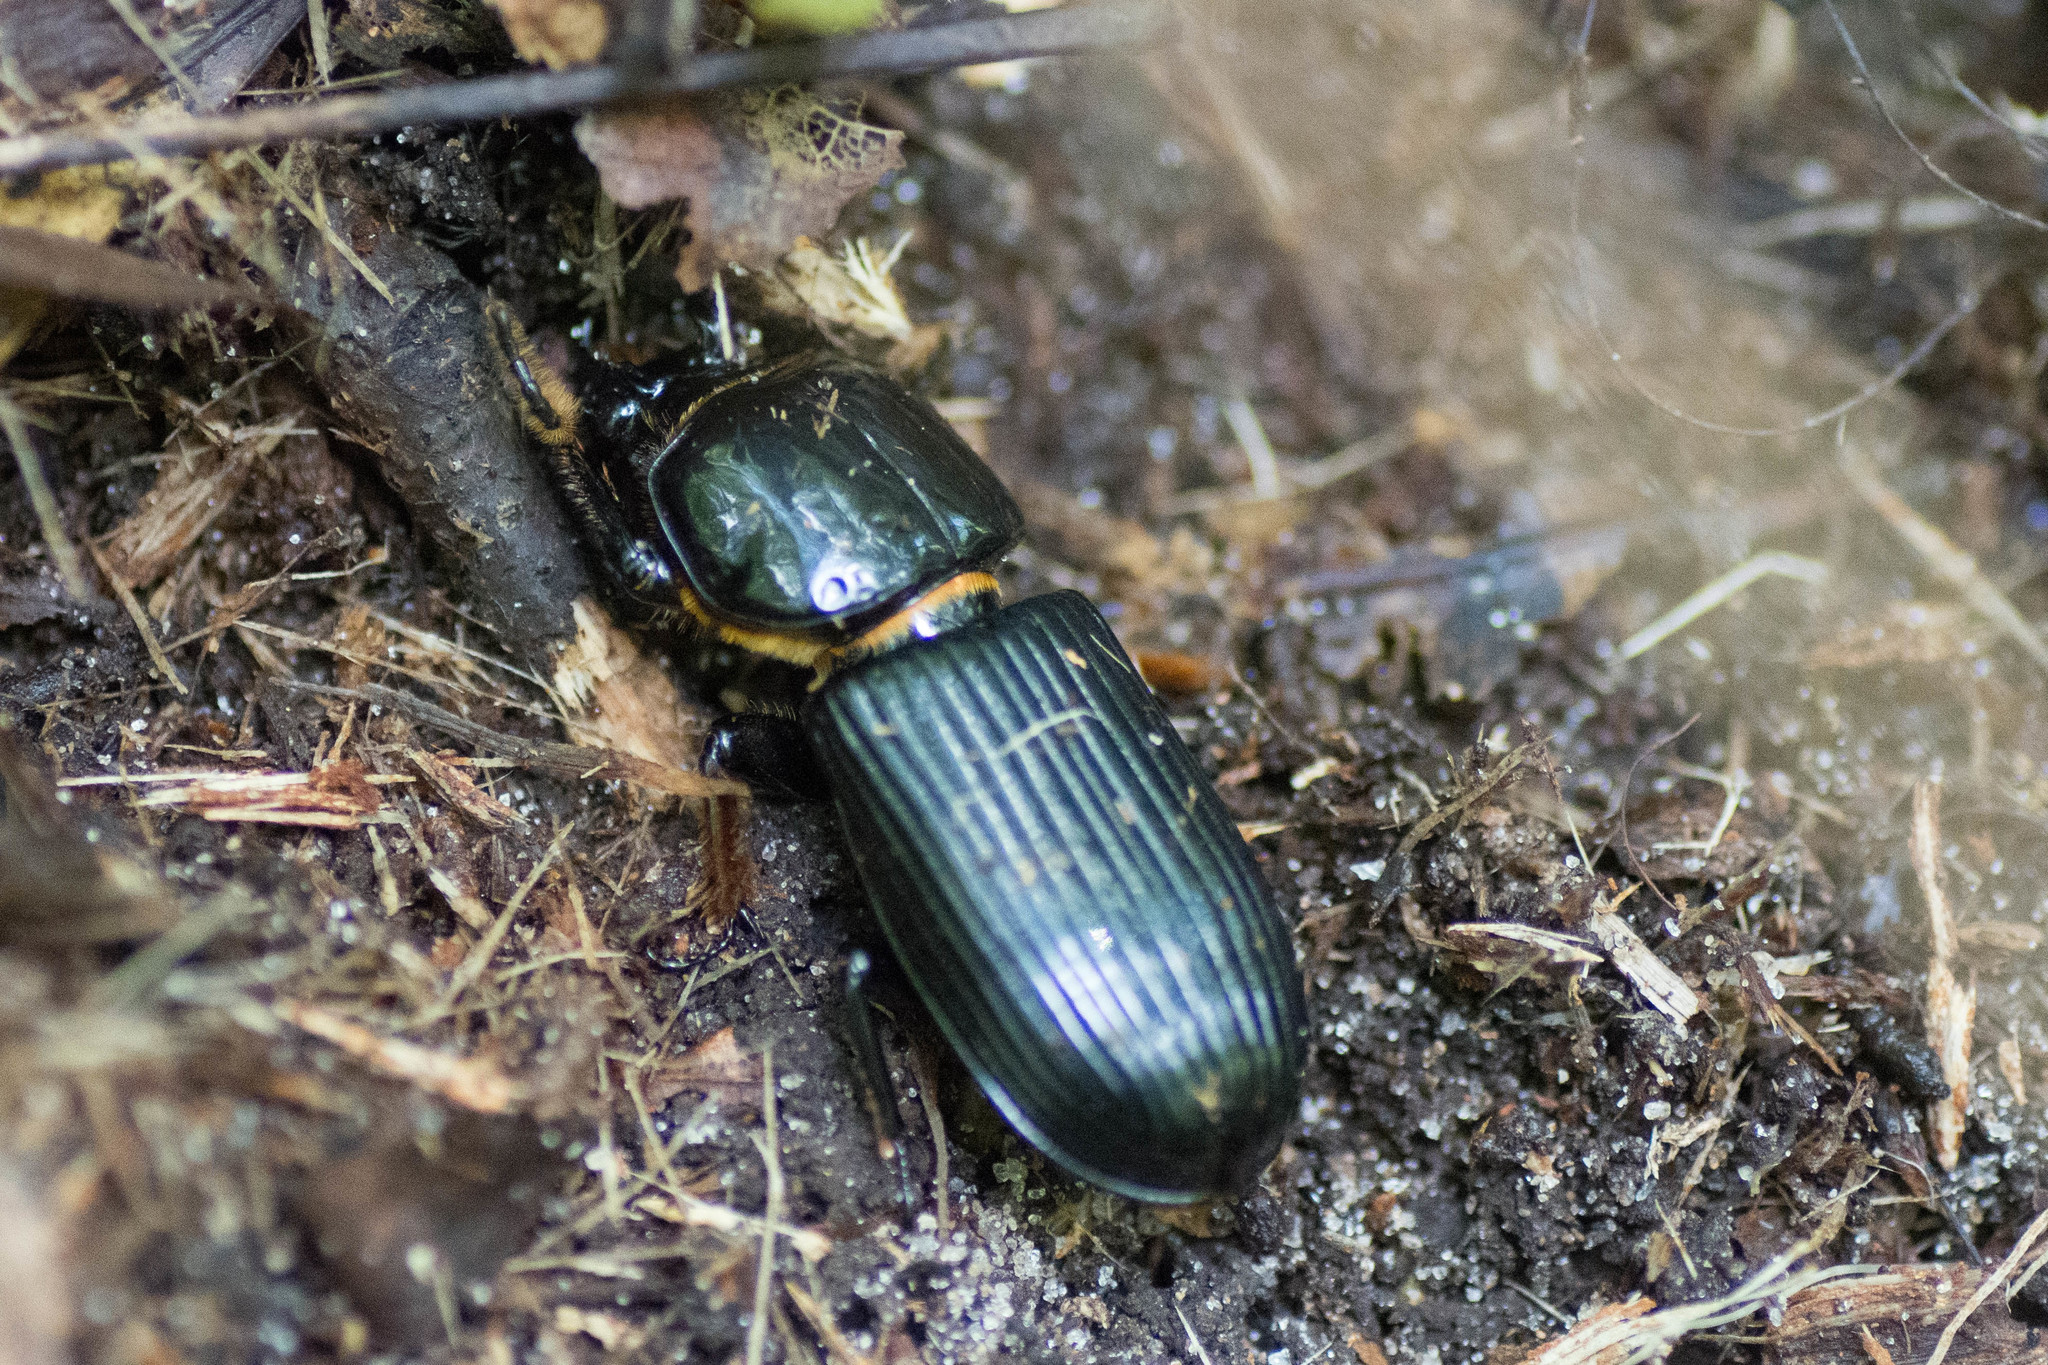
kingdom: Animalia
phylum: Arthropoda
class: Insecta
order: Coleoptera
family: Passalidae
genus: Odontotaenius
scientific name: Odontotaenius disjunctus
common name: Patent leather beetle
